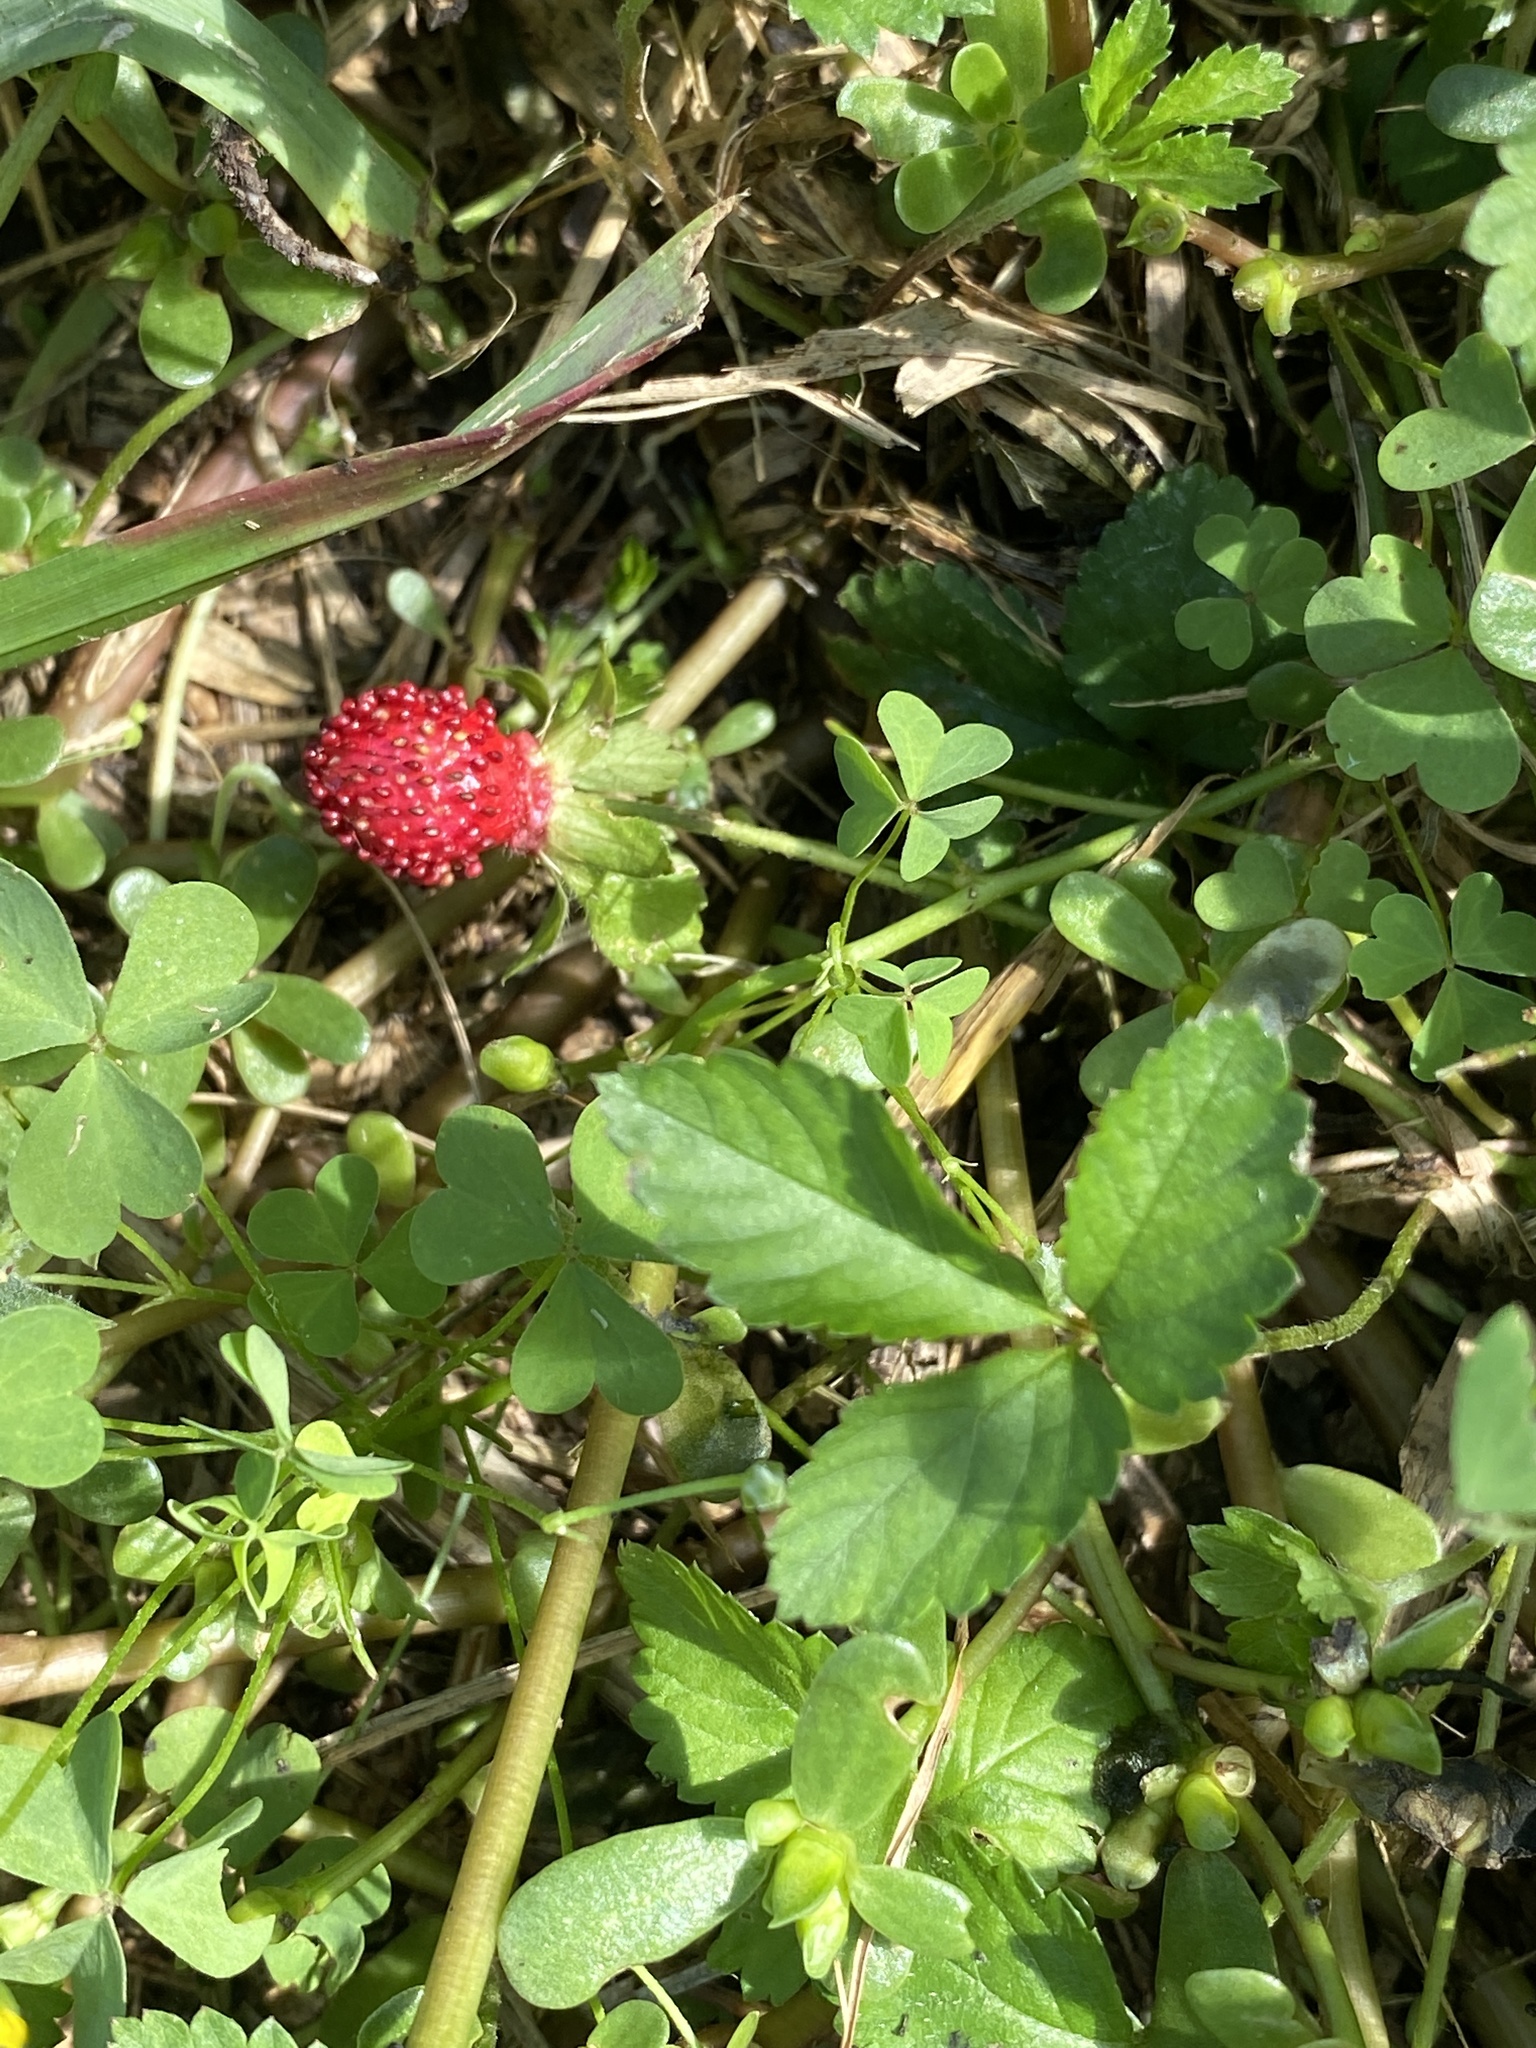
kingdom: Plantae
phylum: Tracheophyta
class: Magnoliopsida
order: Rosales
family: Rosaceae
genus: Potentilla
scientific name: Potentilla indica
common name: Yellow-flowered strawberry
